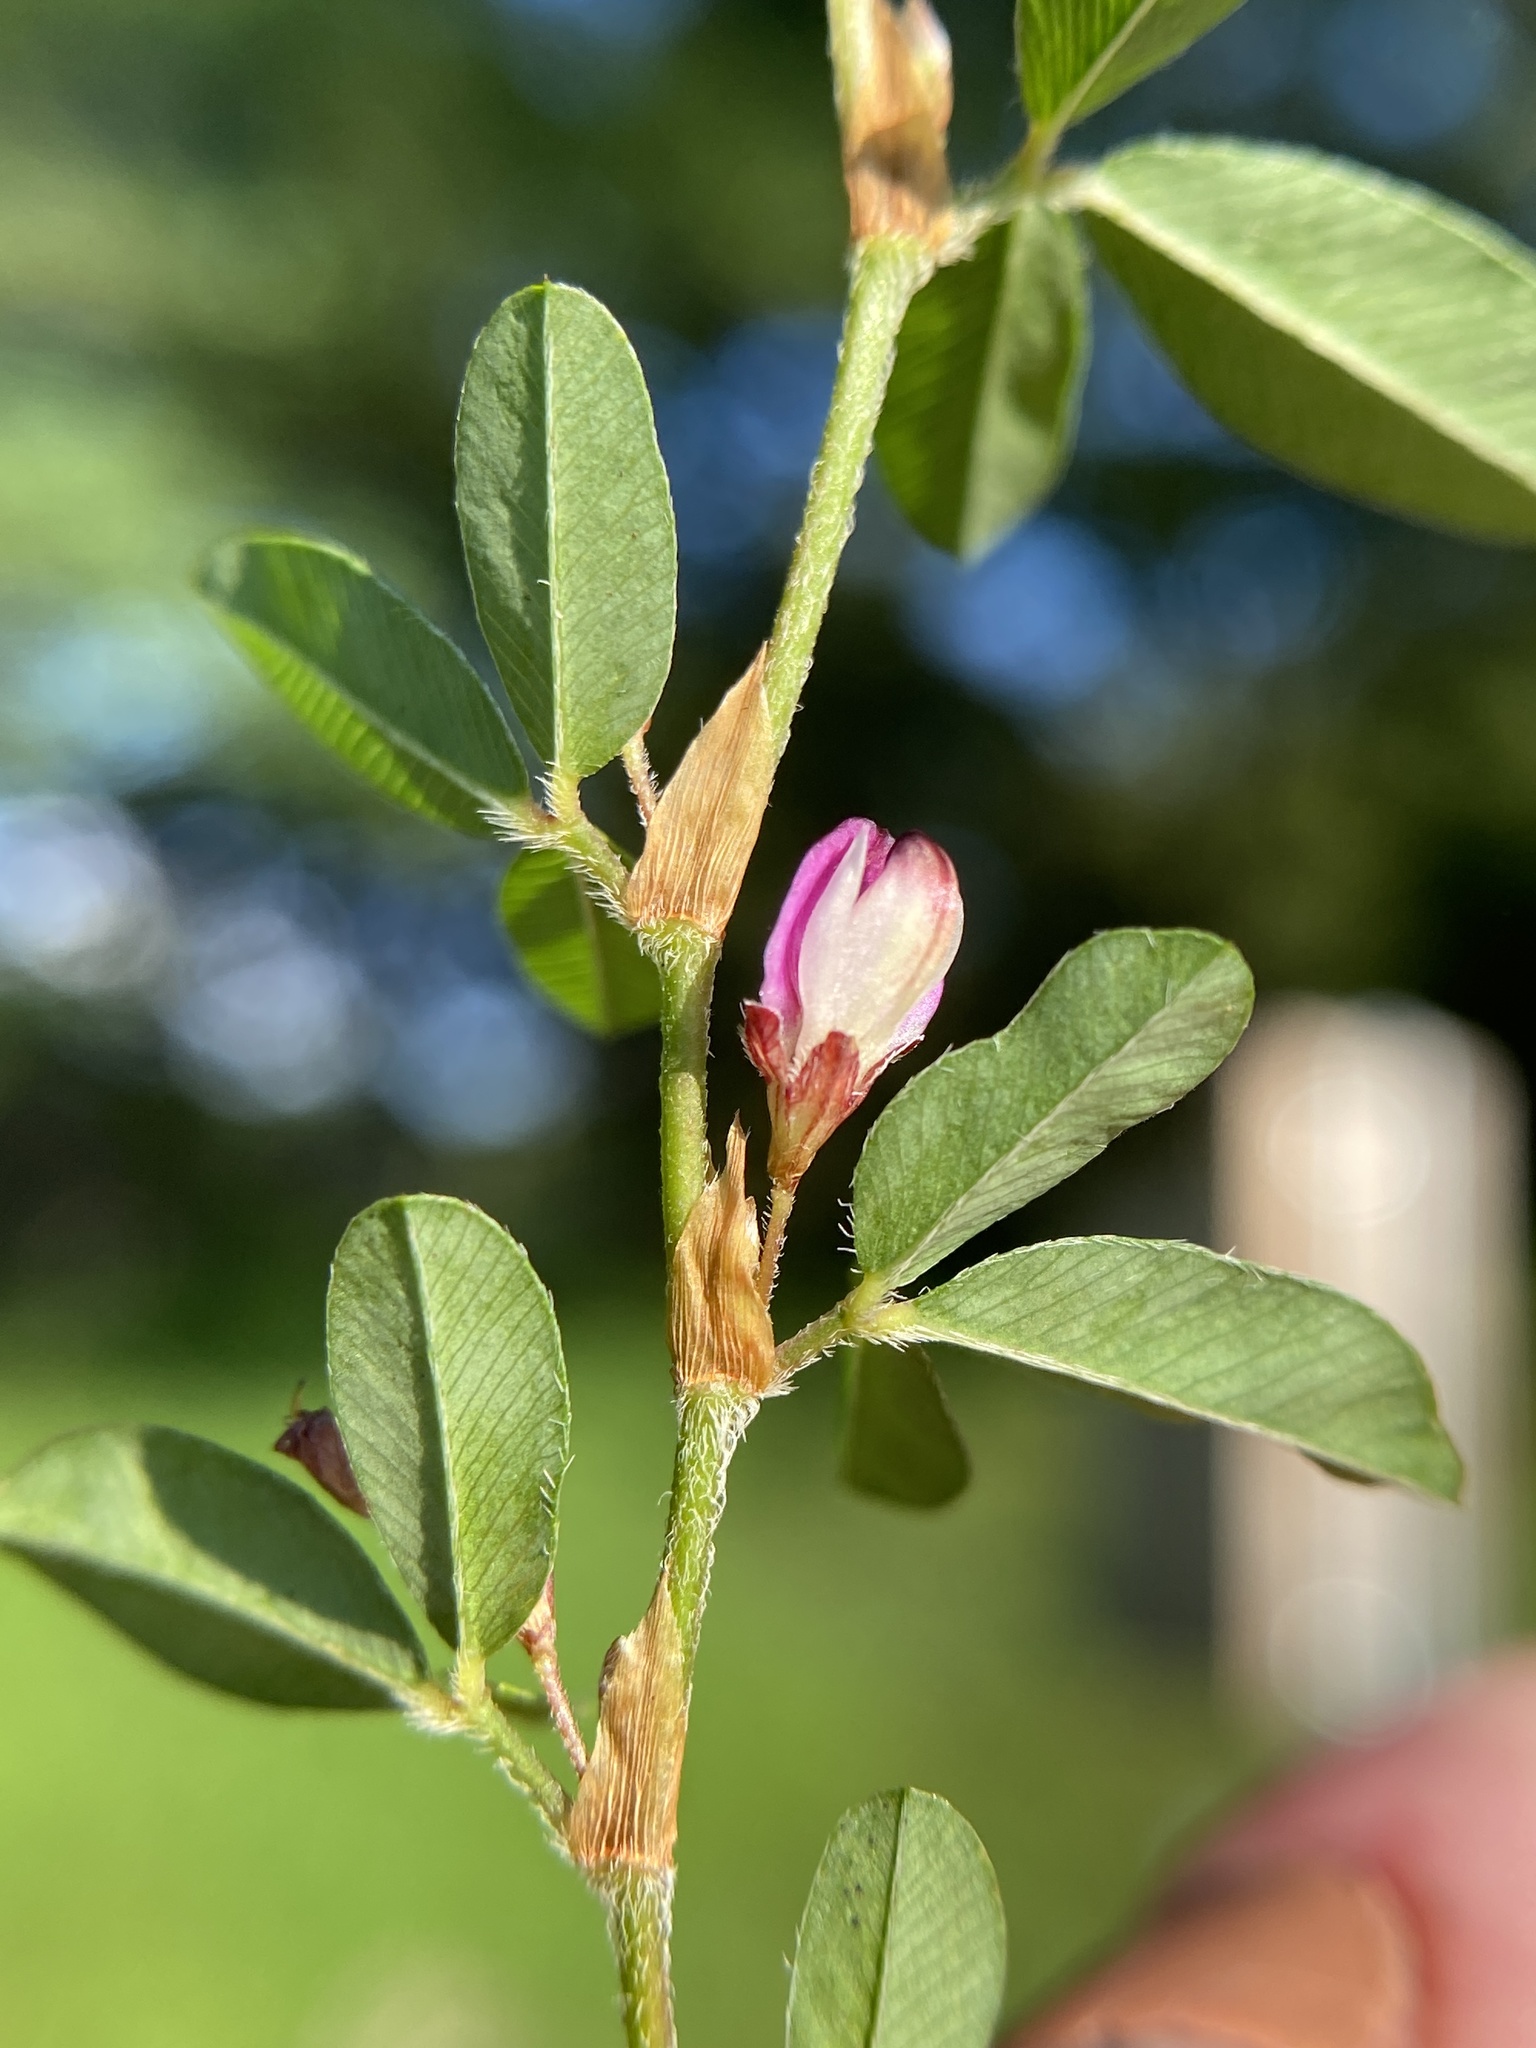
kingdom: Plantae
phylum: Tracheophyta
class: Magnoliopsida
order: Fabales
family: Fabaceae
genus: Kummerowia
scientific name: Kummerowia striata
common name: Japanese clover
